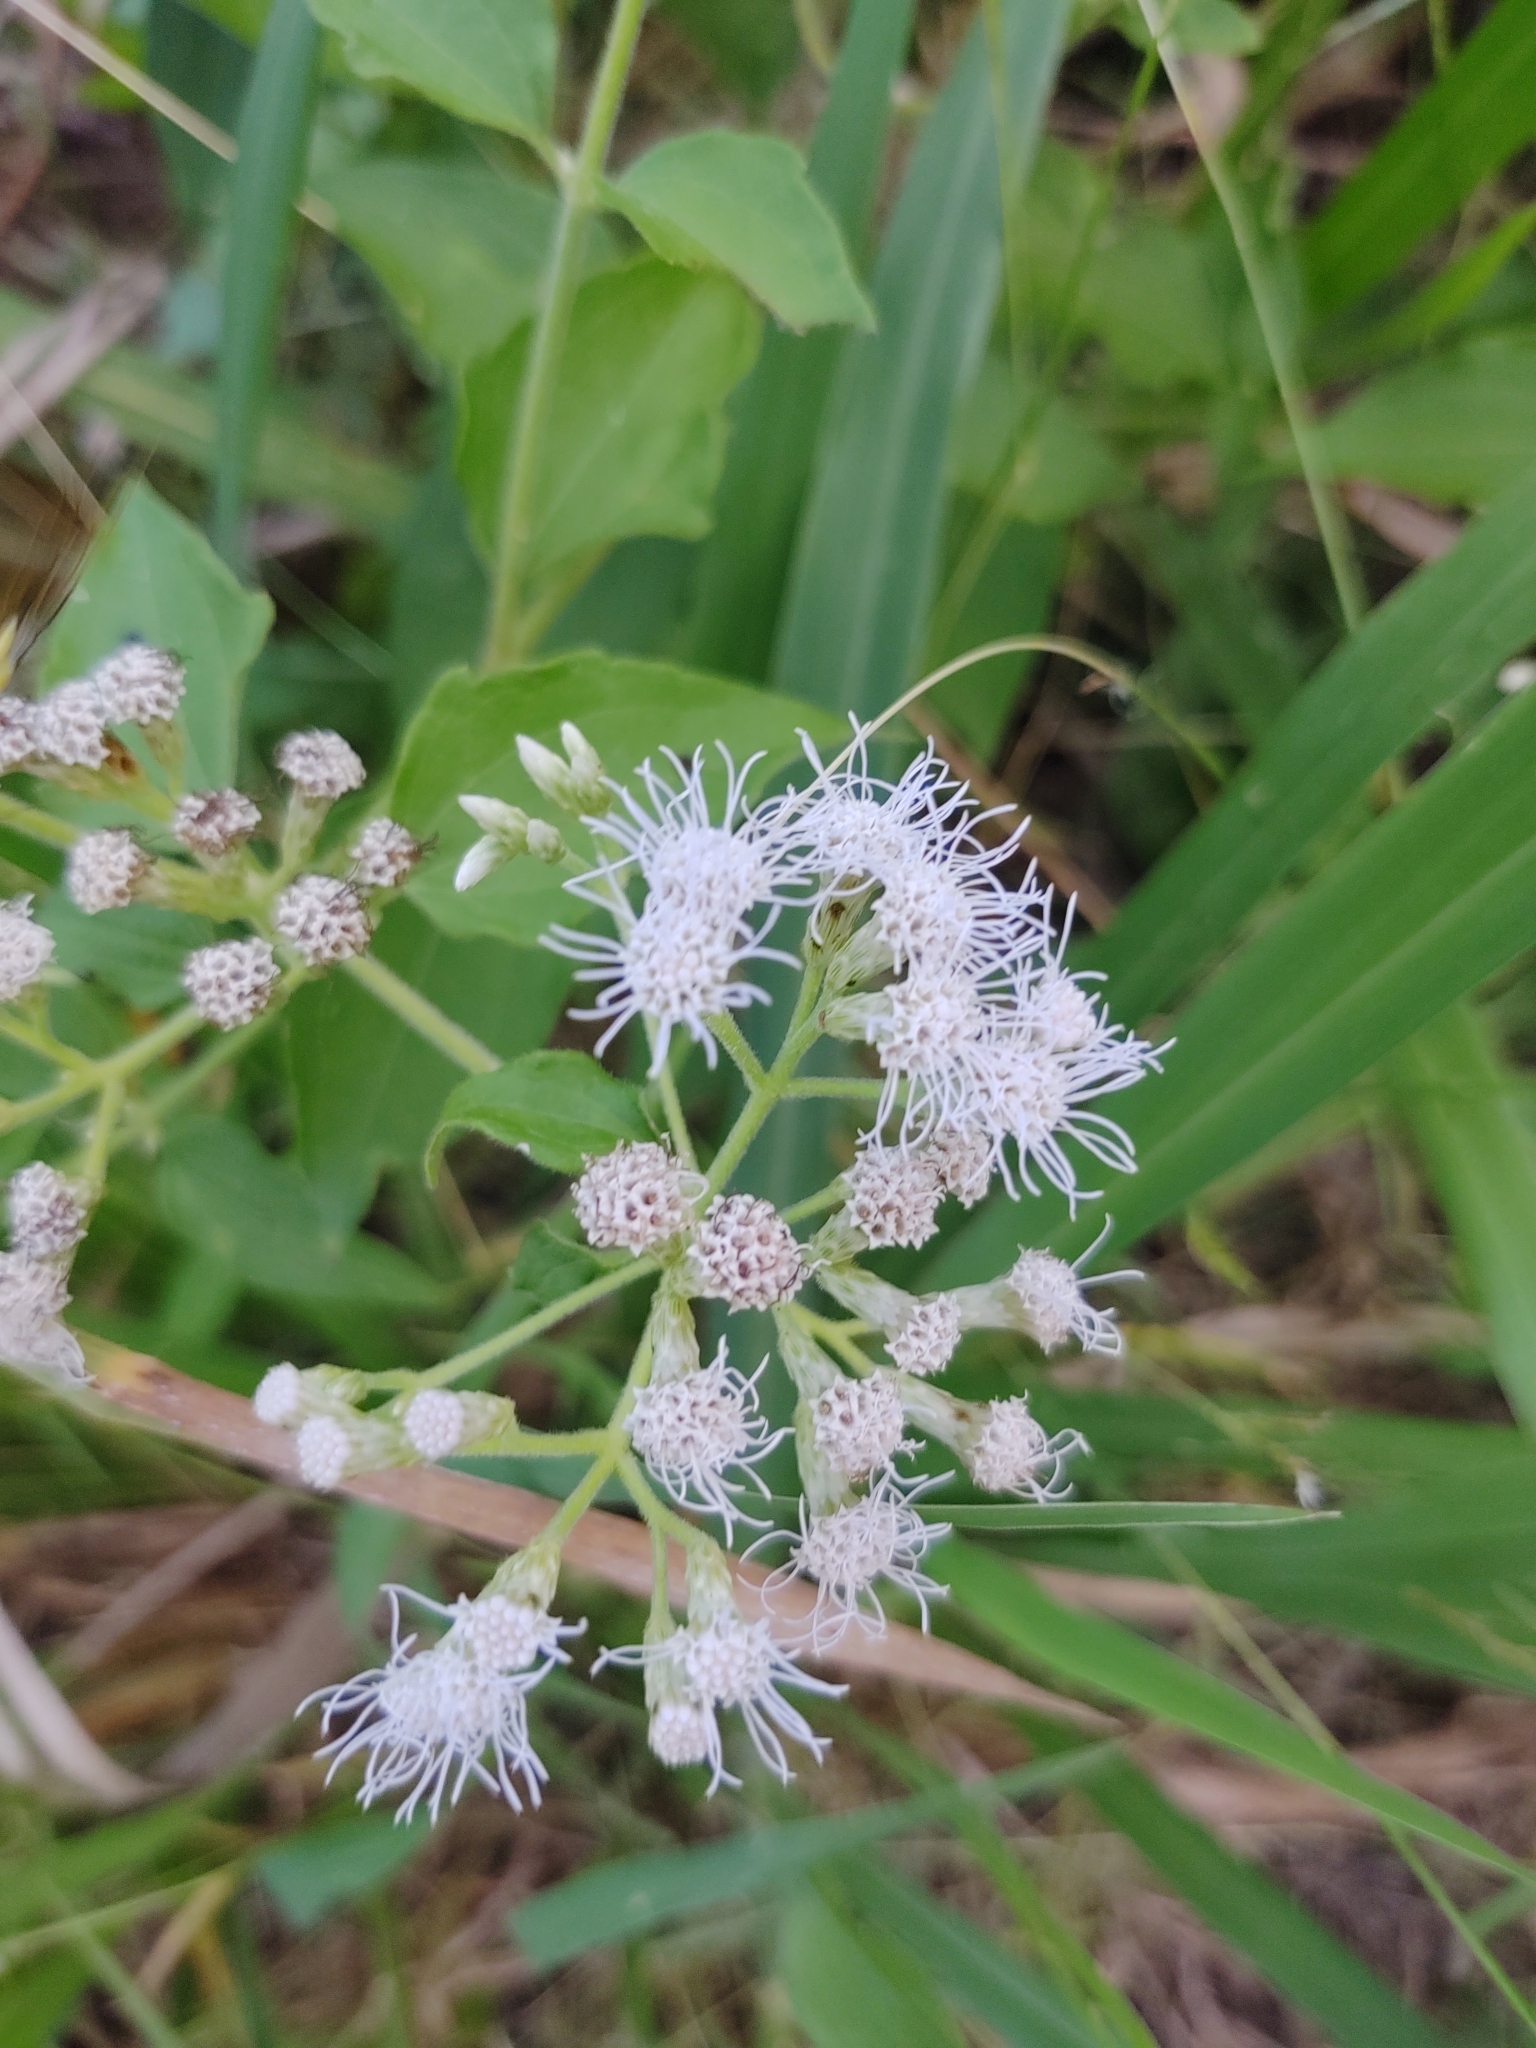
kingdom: Plantae
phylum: Tracheophyta
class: Magnoliopsida
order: Asterales
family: Asteraceae
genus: Chromolaena
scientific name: Chromolaena odorata
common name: Siamweed
